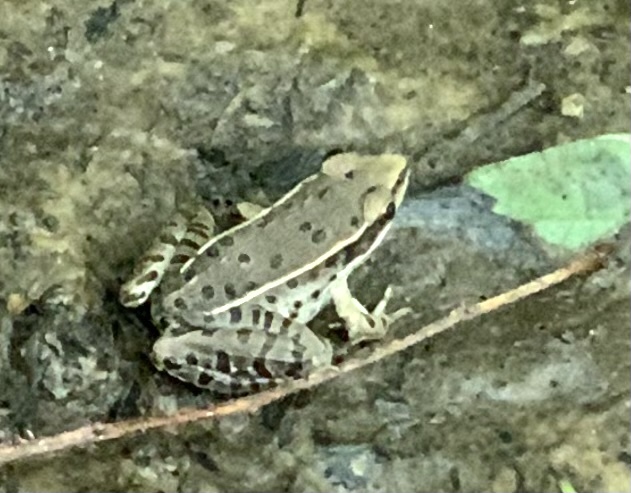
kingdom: Animalia
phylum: Chordata
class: Amphibia
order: Anura
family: Ranidae
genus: Lithobates
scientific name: Lithobates sphenocephalus
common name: Southern leopard frog
